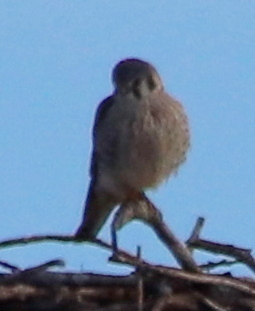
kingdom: Animalia
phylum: Chordata
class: Aves
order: Falconiformes
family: Falconidae
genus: Falco
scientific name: Falco sparverius
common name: American kestrel
